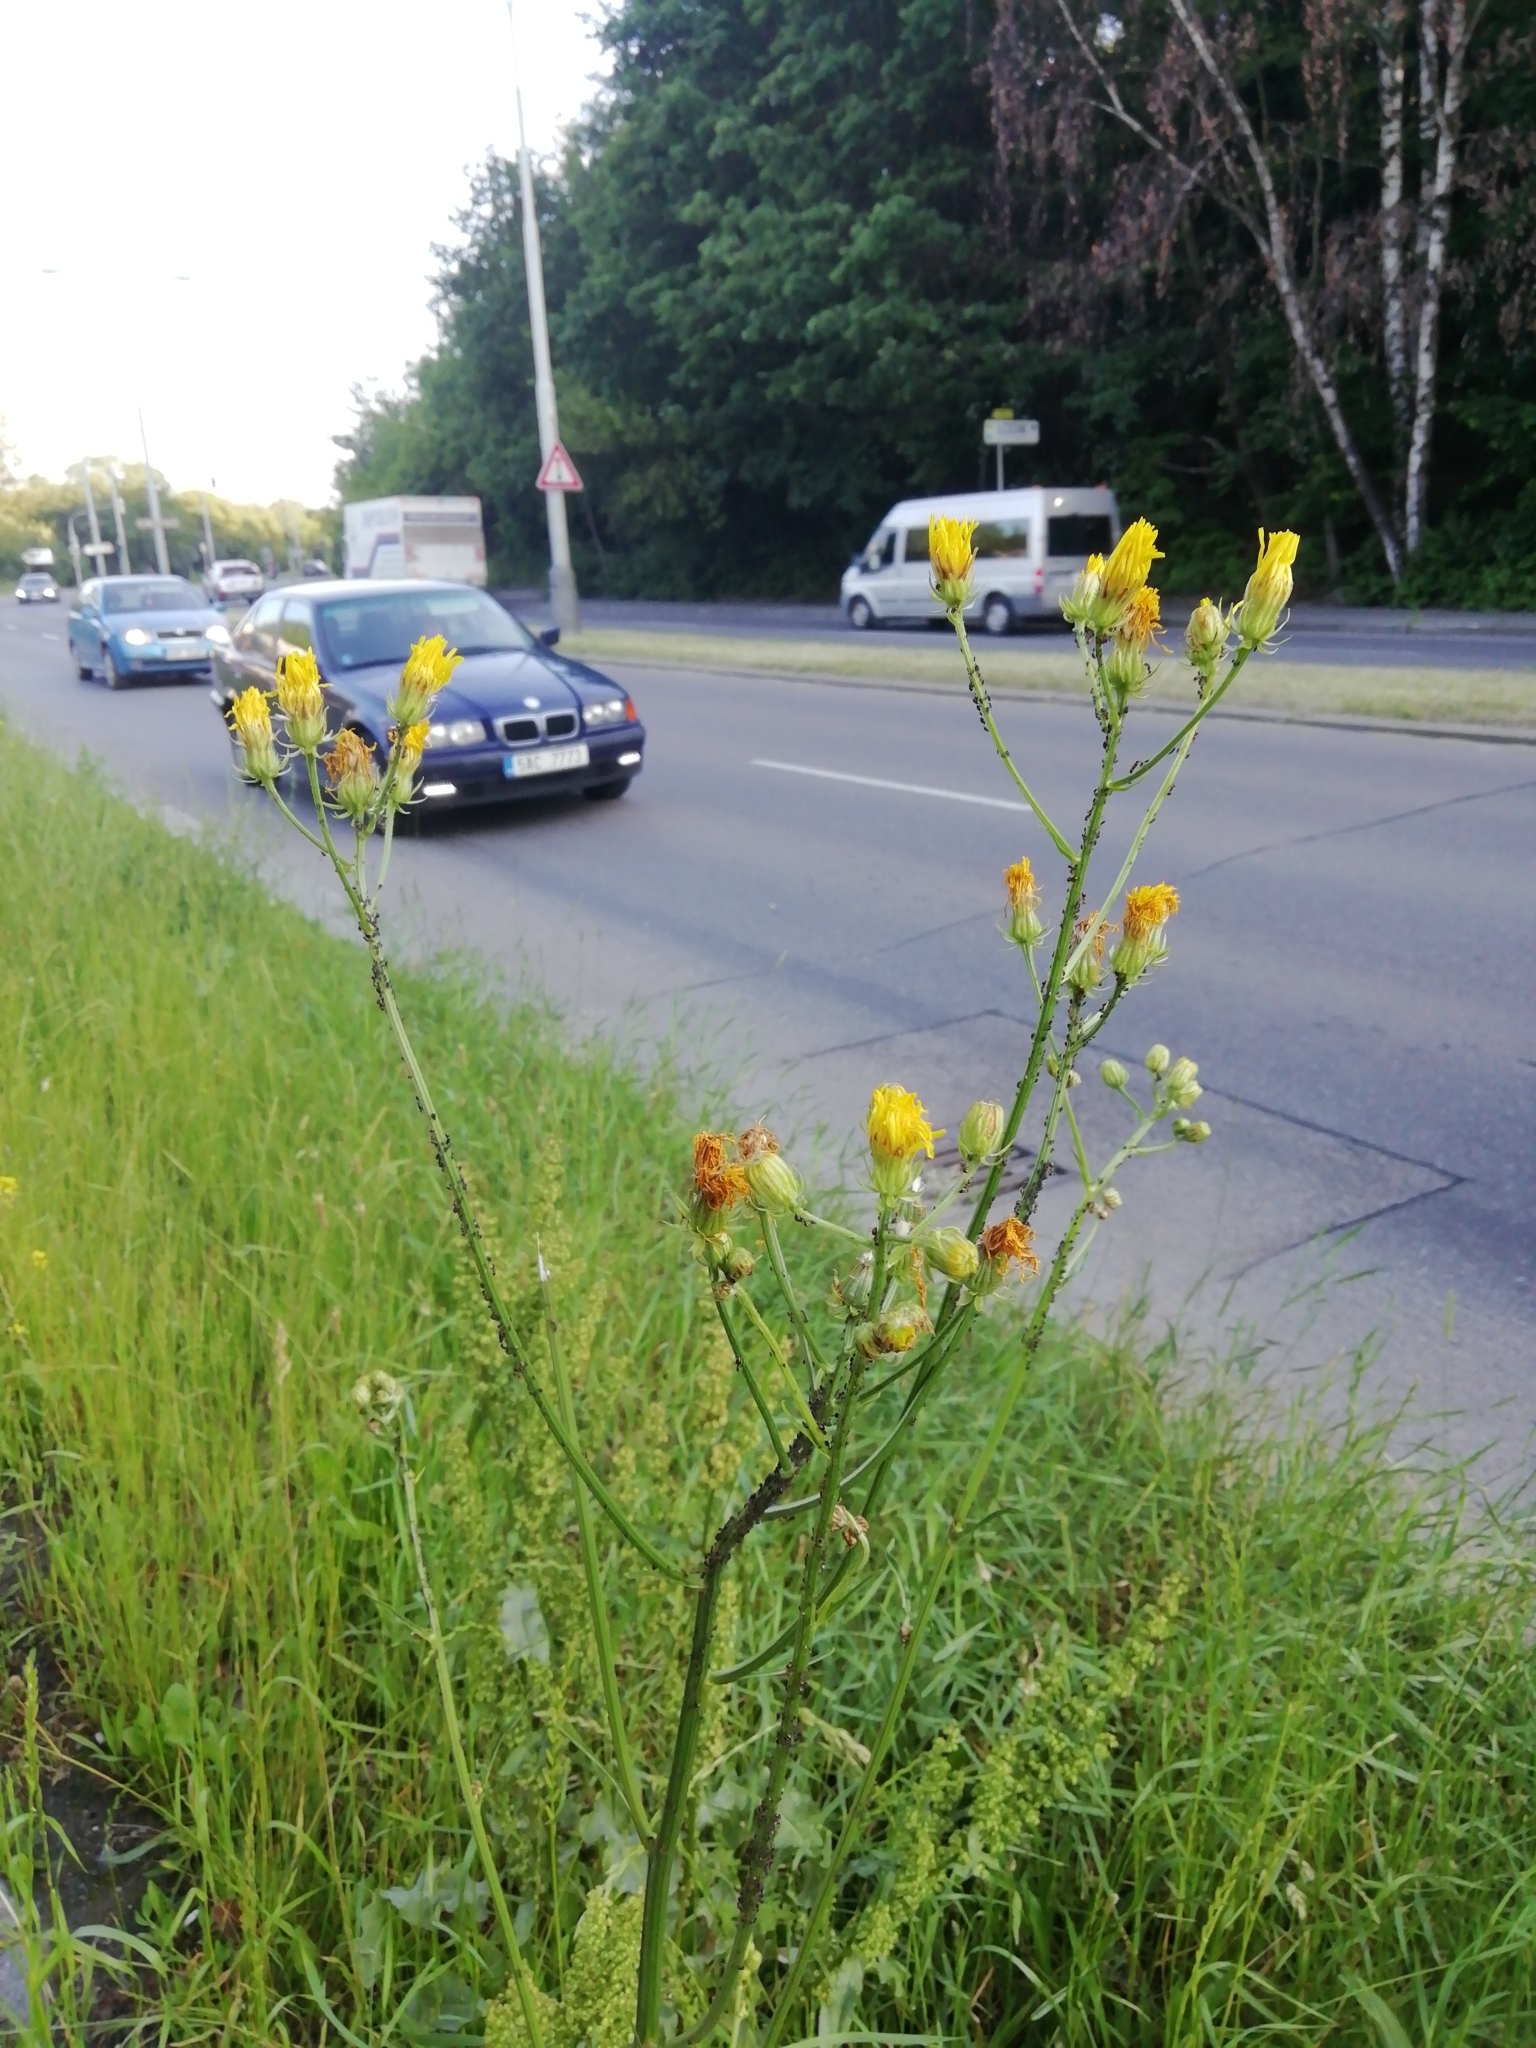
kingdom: Plantae
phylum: Tracheophyta
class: Magnoliopsida
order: Asterales
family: Asteraceae
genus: Crepis
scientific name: Crepis biennis
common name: Rough hawk's-beard
